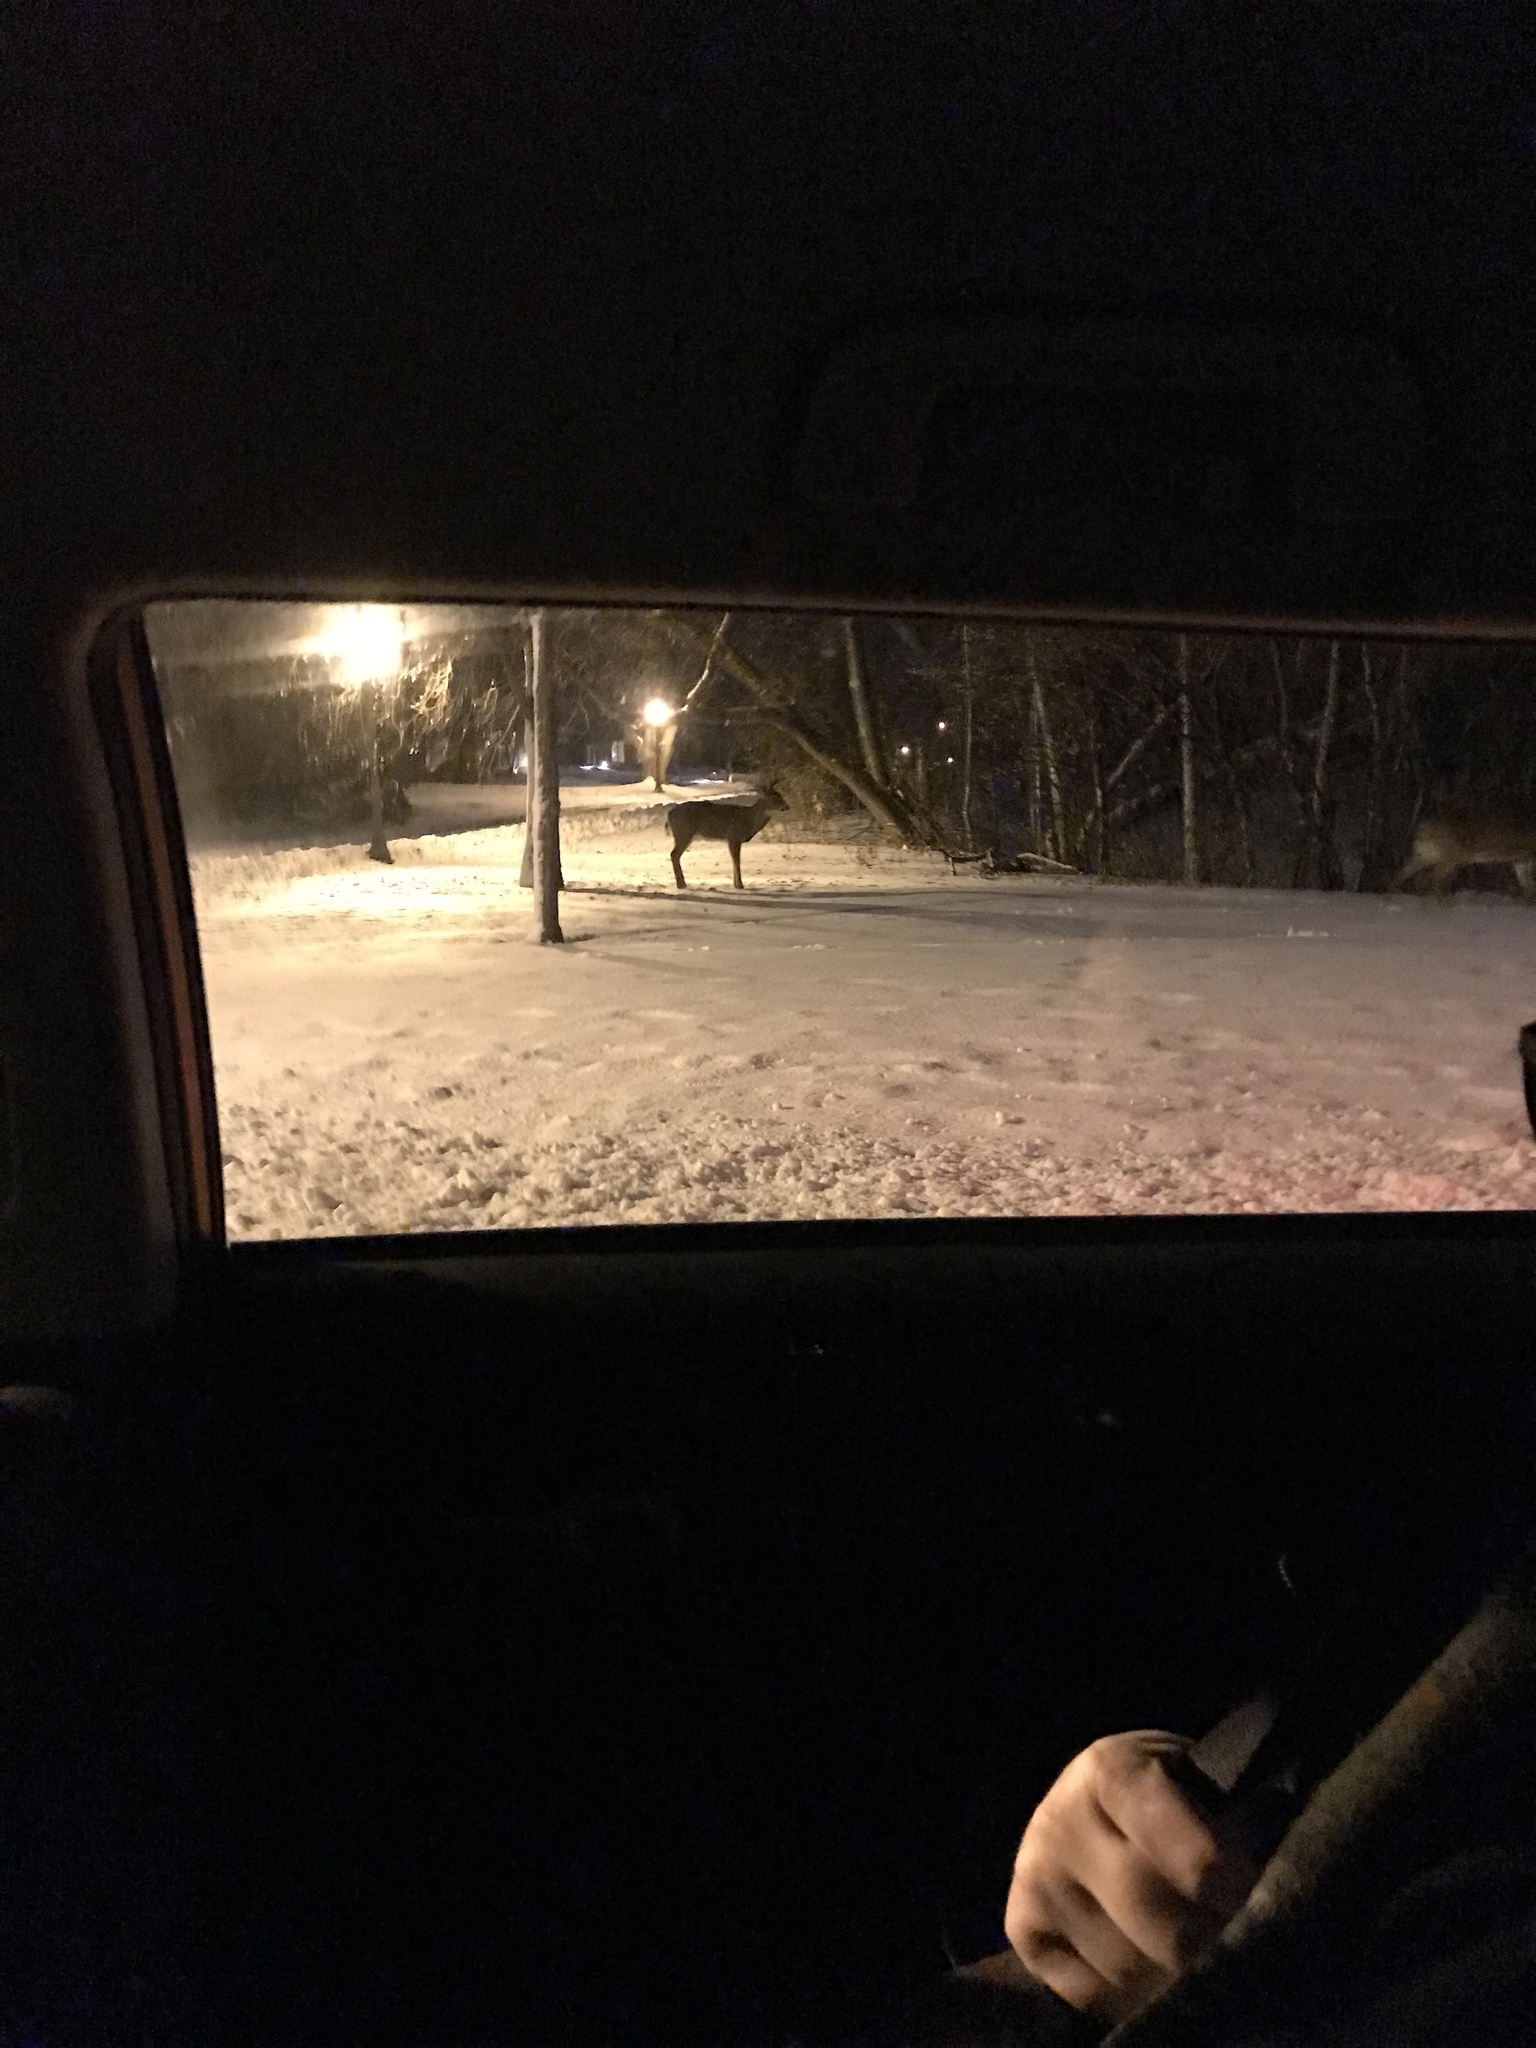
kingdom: Animalia
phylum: Chordata
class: Mammalia
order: Artiodactyla
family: Cervidae
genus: Odocoileus
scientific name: Odocoileus virginianus
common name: White-tailed deer
